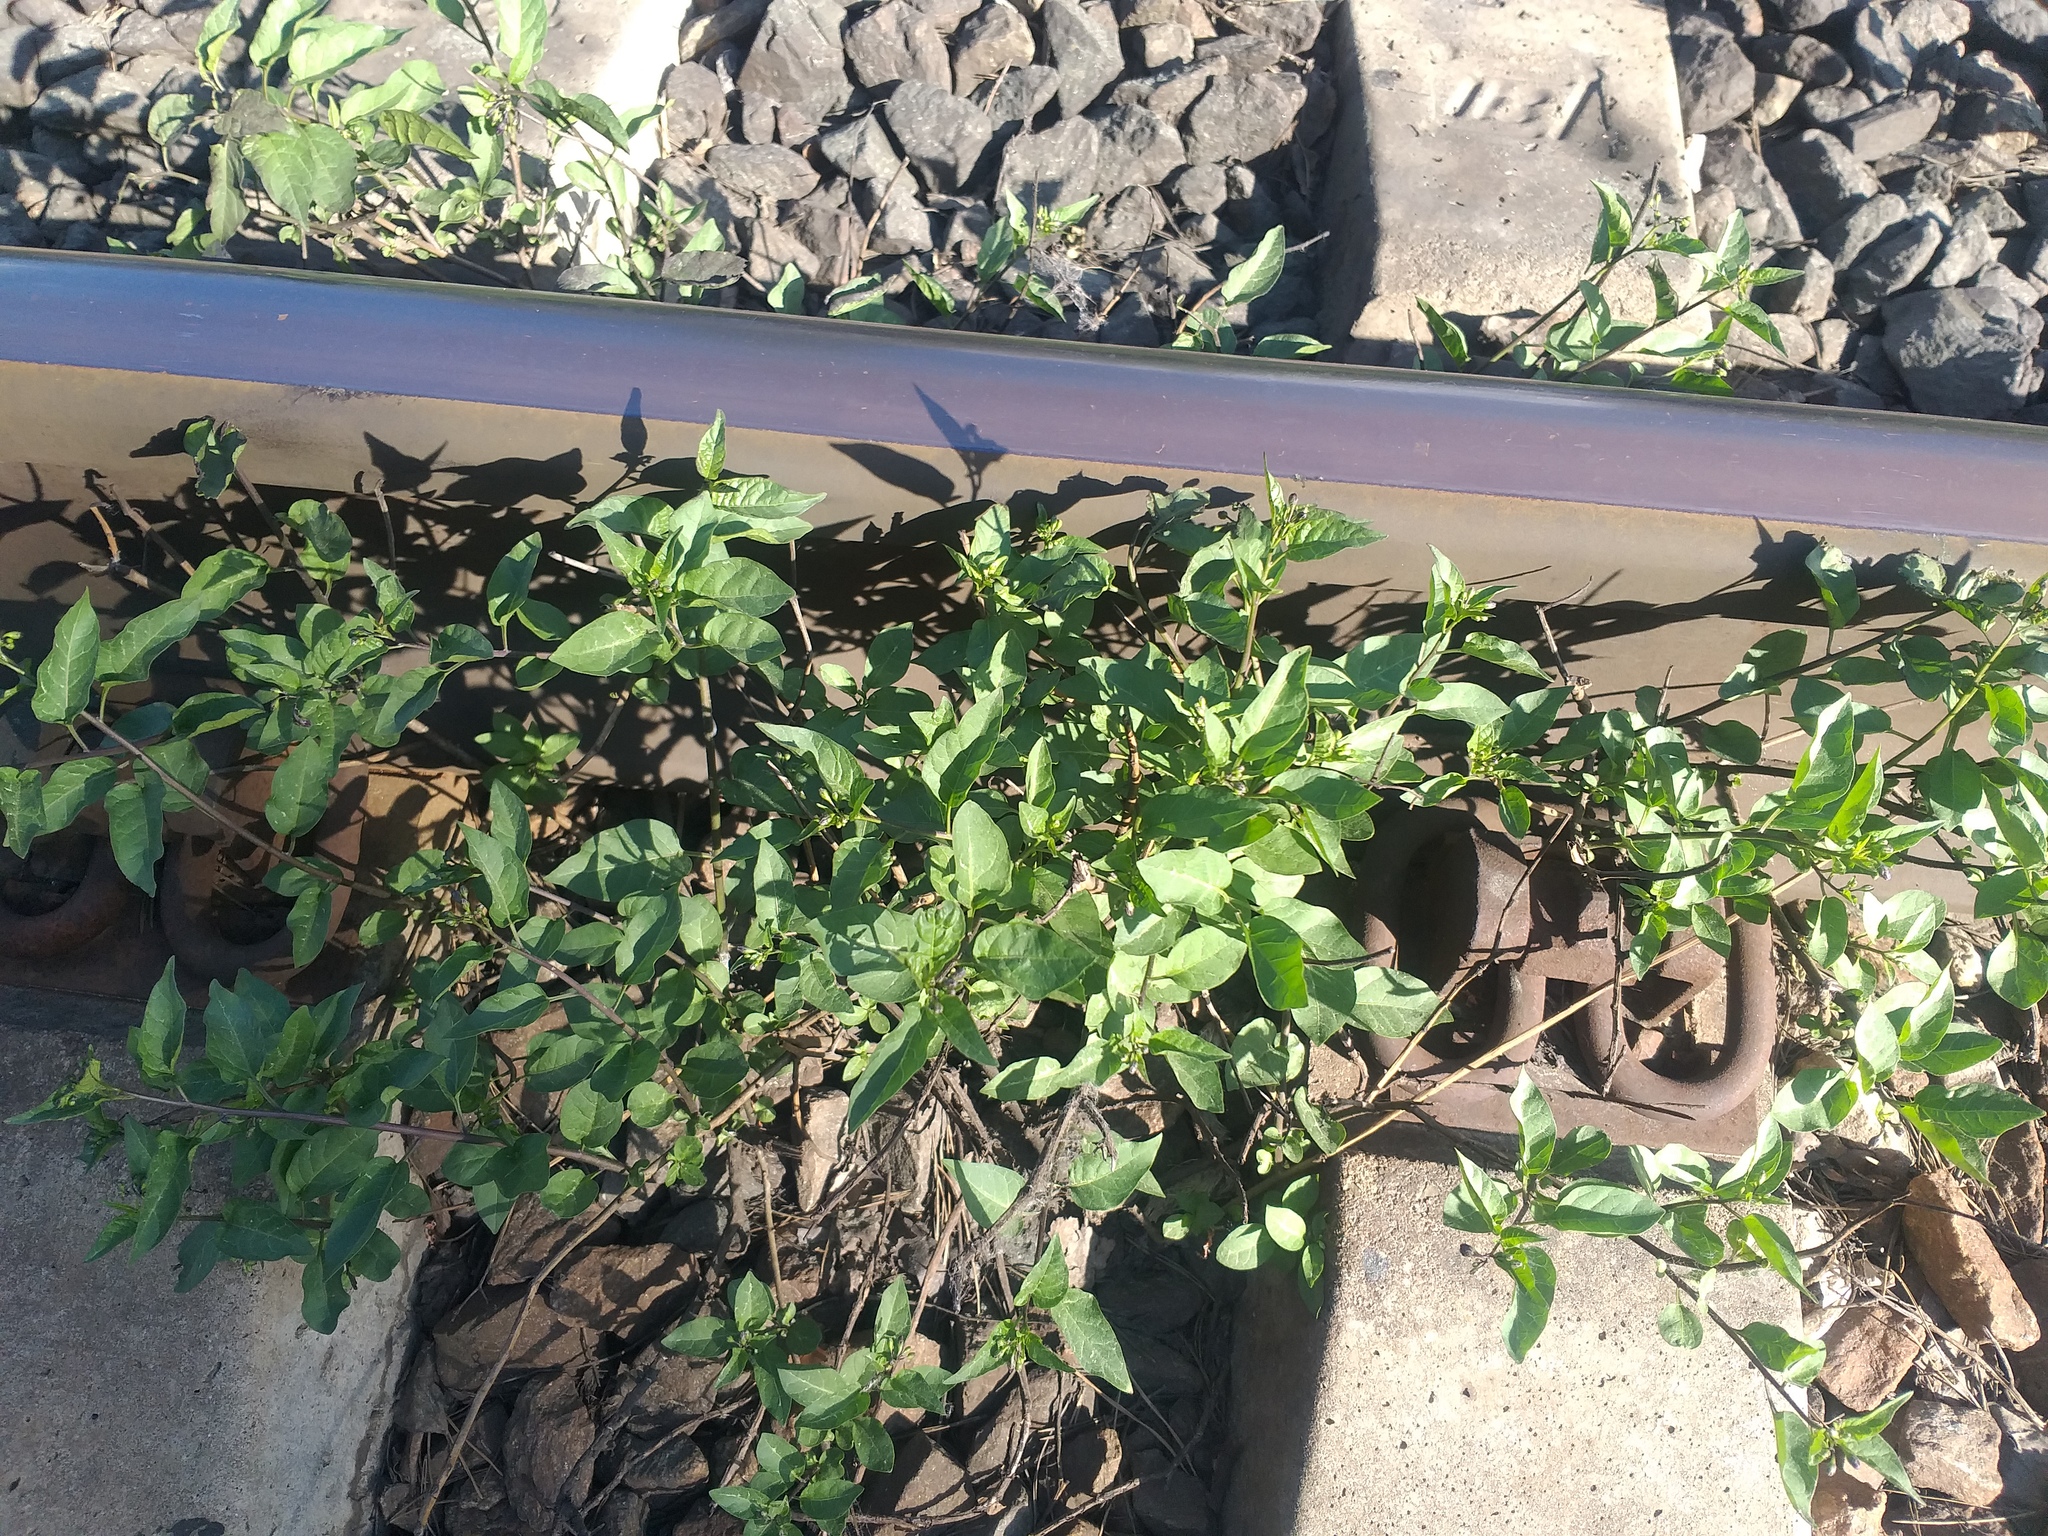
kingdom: Plantae
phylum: Tracheophyta
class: Magnoliopsida
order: Solanales
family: Solanaceae
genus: Solanum
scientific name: Solanum dulcamara
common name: Climbing nightshade
